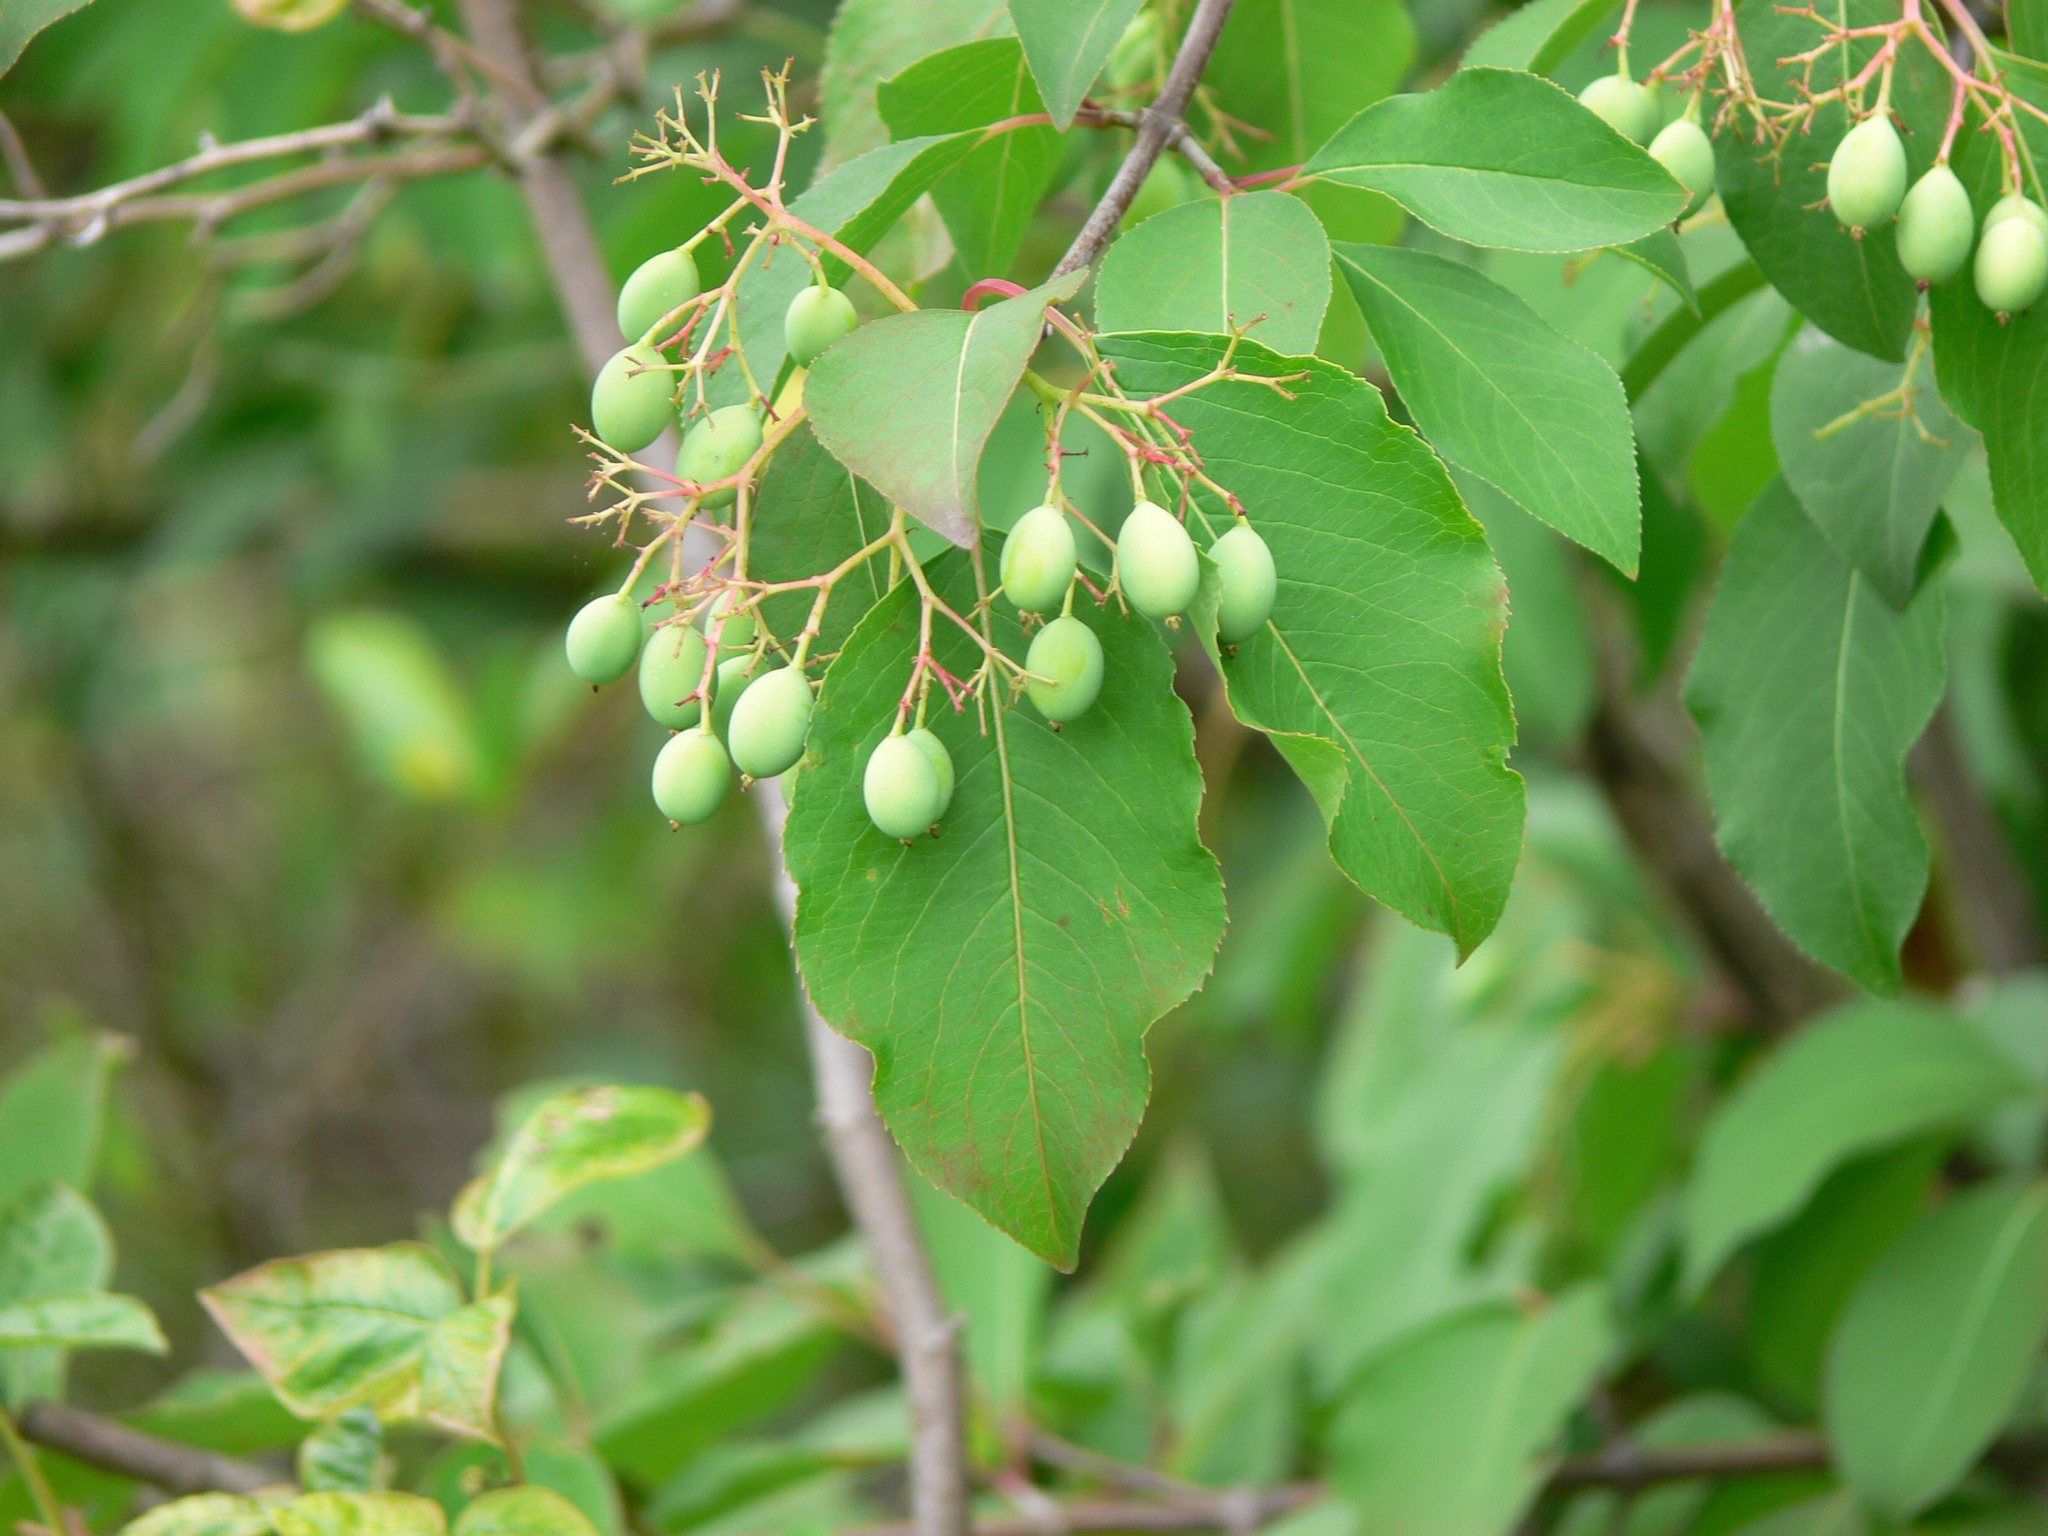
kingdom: Plantae
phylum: Tracheophyta
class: Magnoliopsida
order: Dipsacales
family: Viburnaceae
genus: Viburnum
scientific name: Viburnum prunifolium
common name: Black haw
